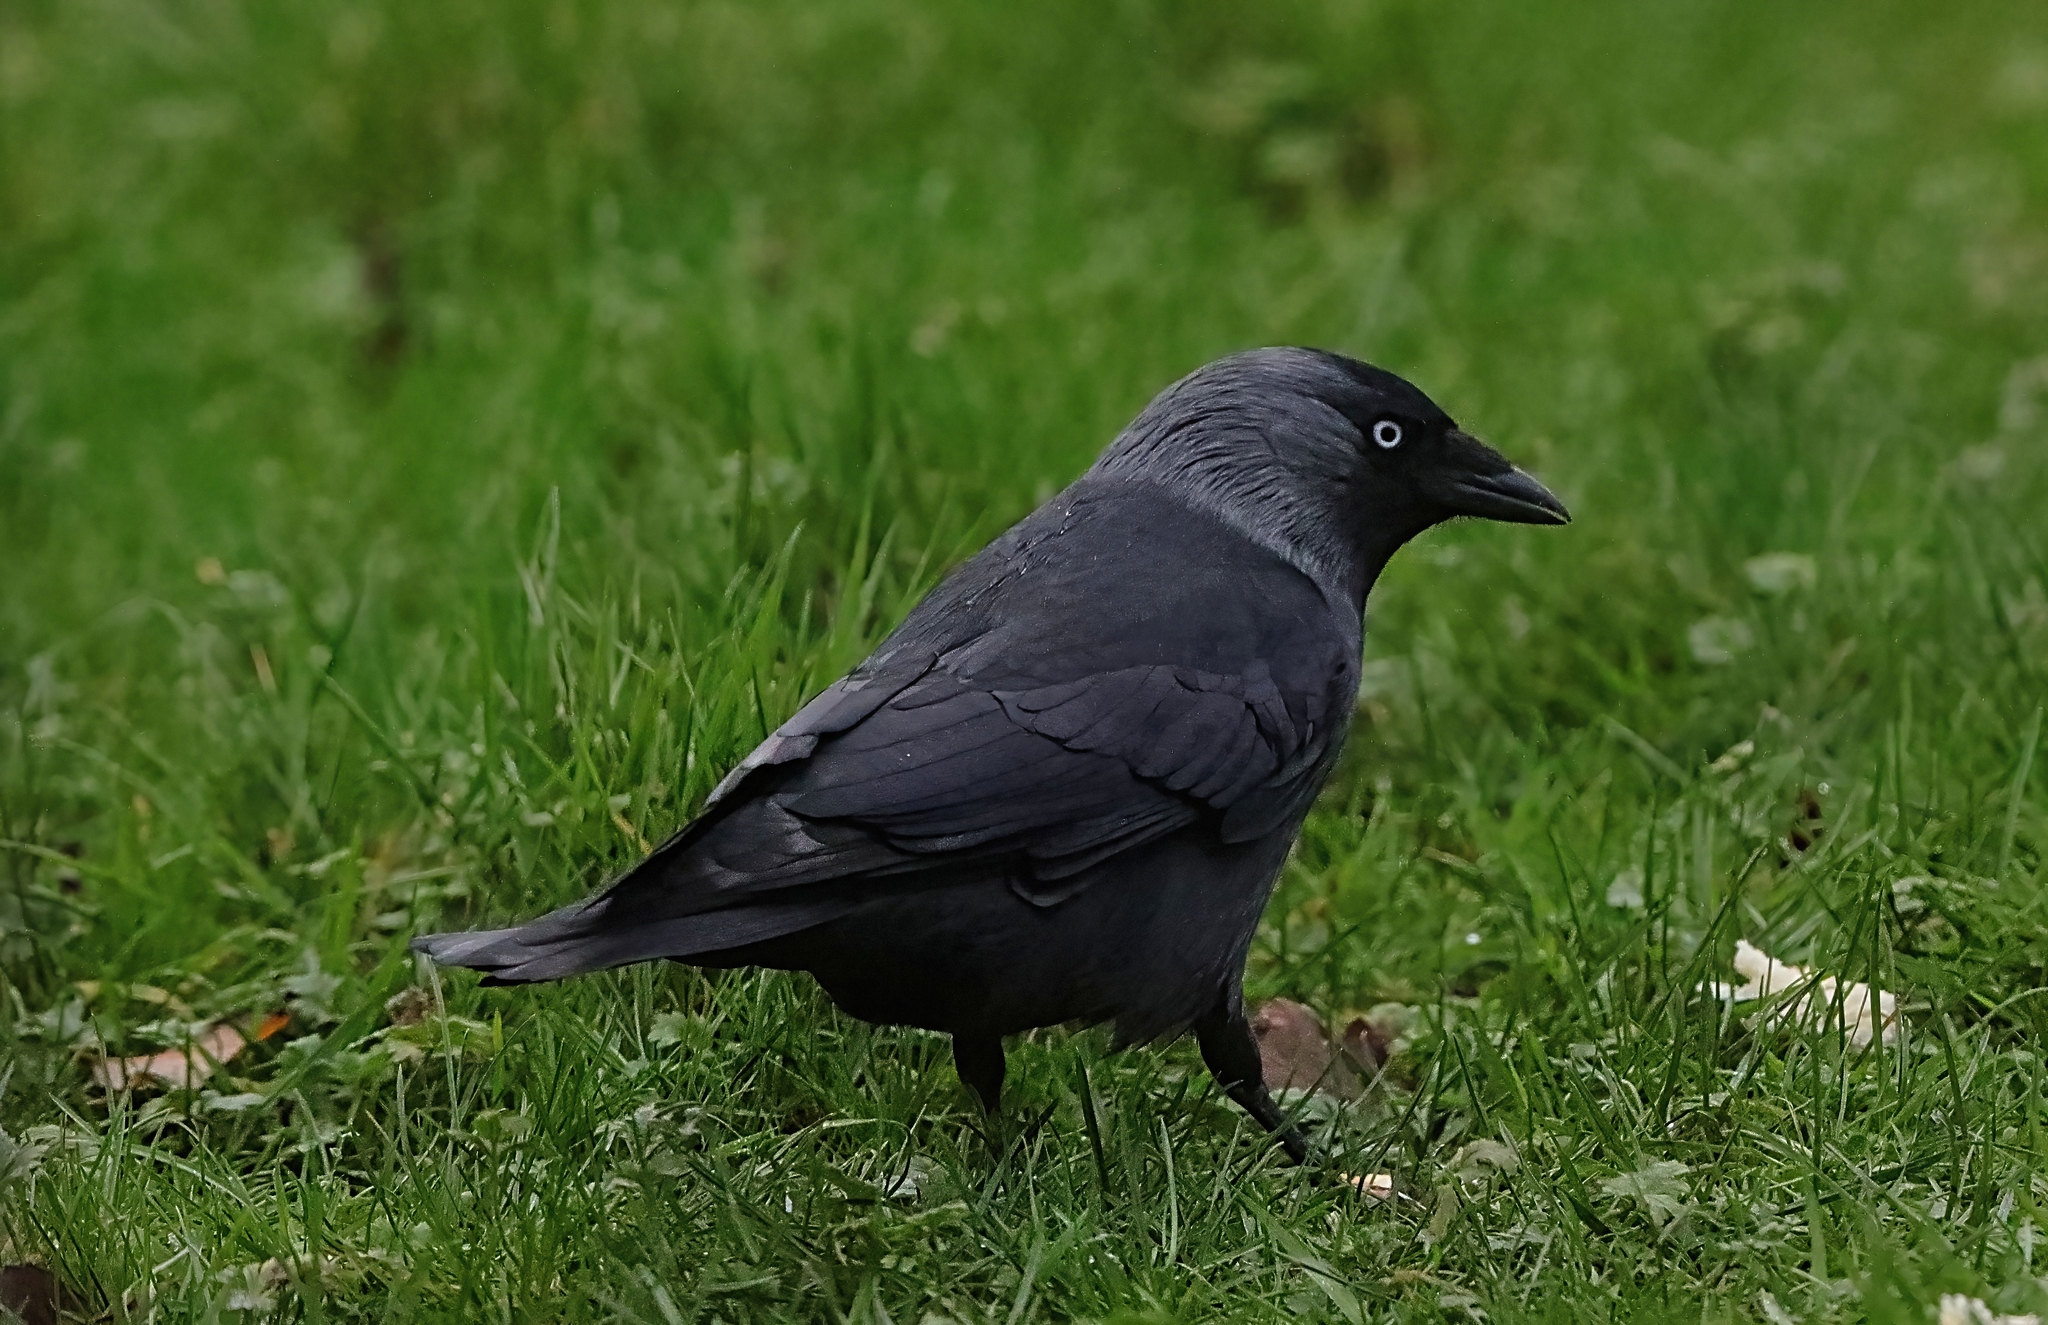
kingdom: Animalia
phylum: Chordata
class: Aves
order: Passeriformes
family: Corvidae
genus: Coloeus
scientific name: Coloeus monedula
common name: Western jackdaw
